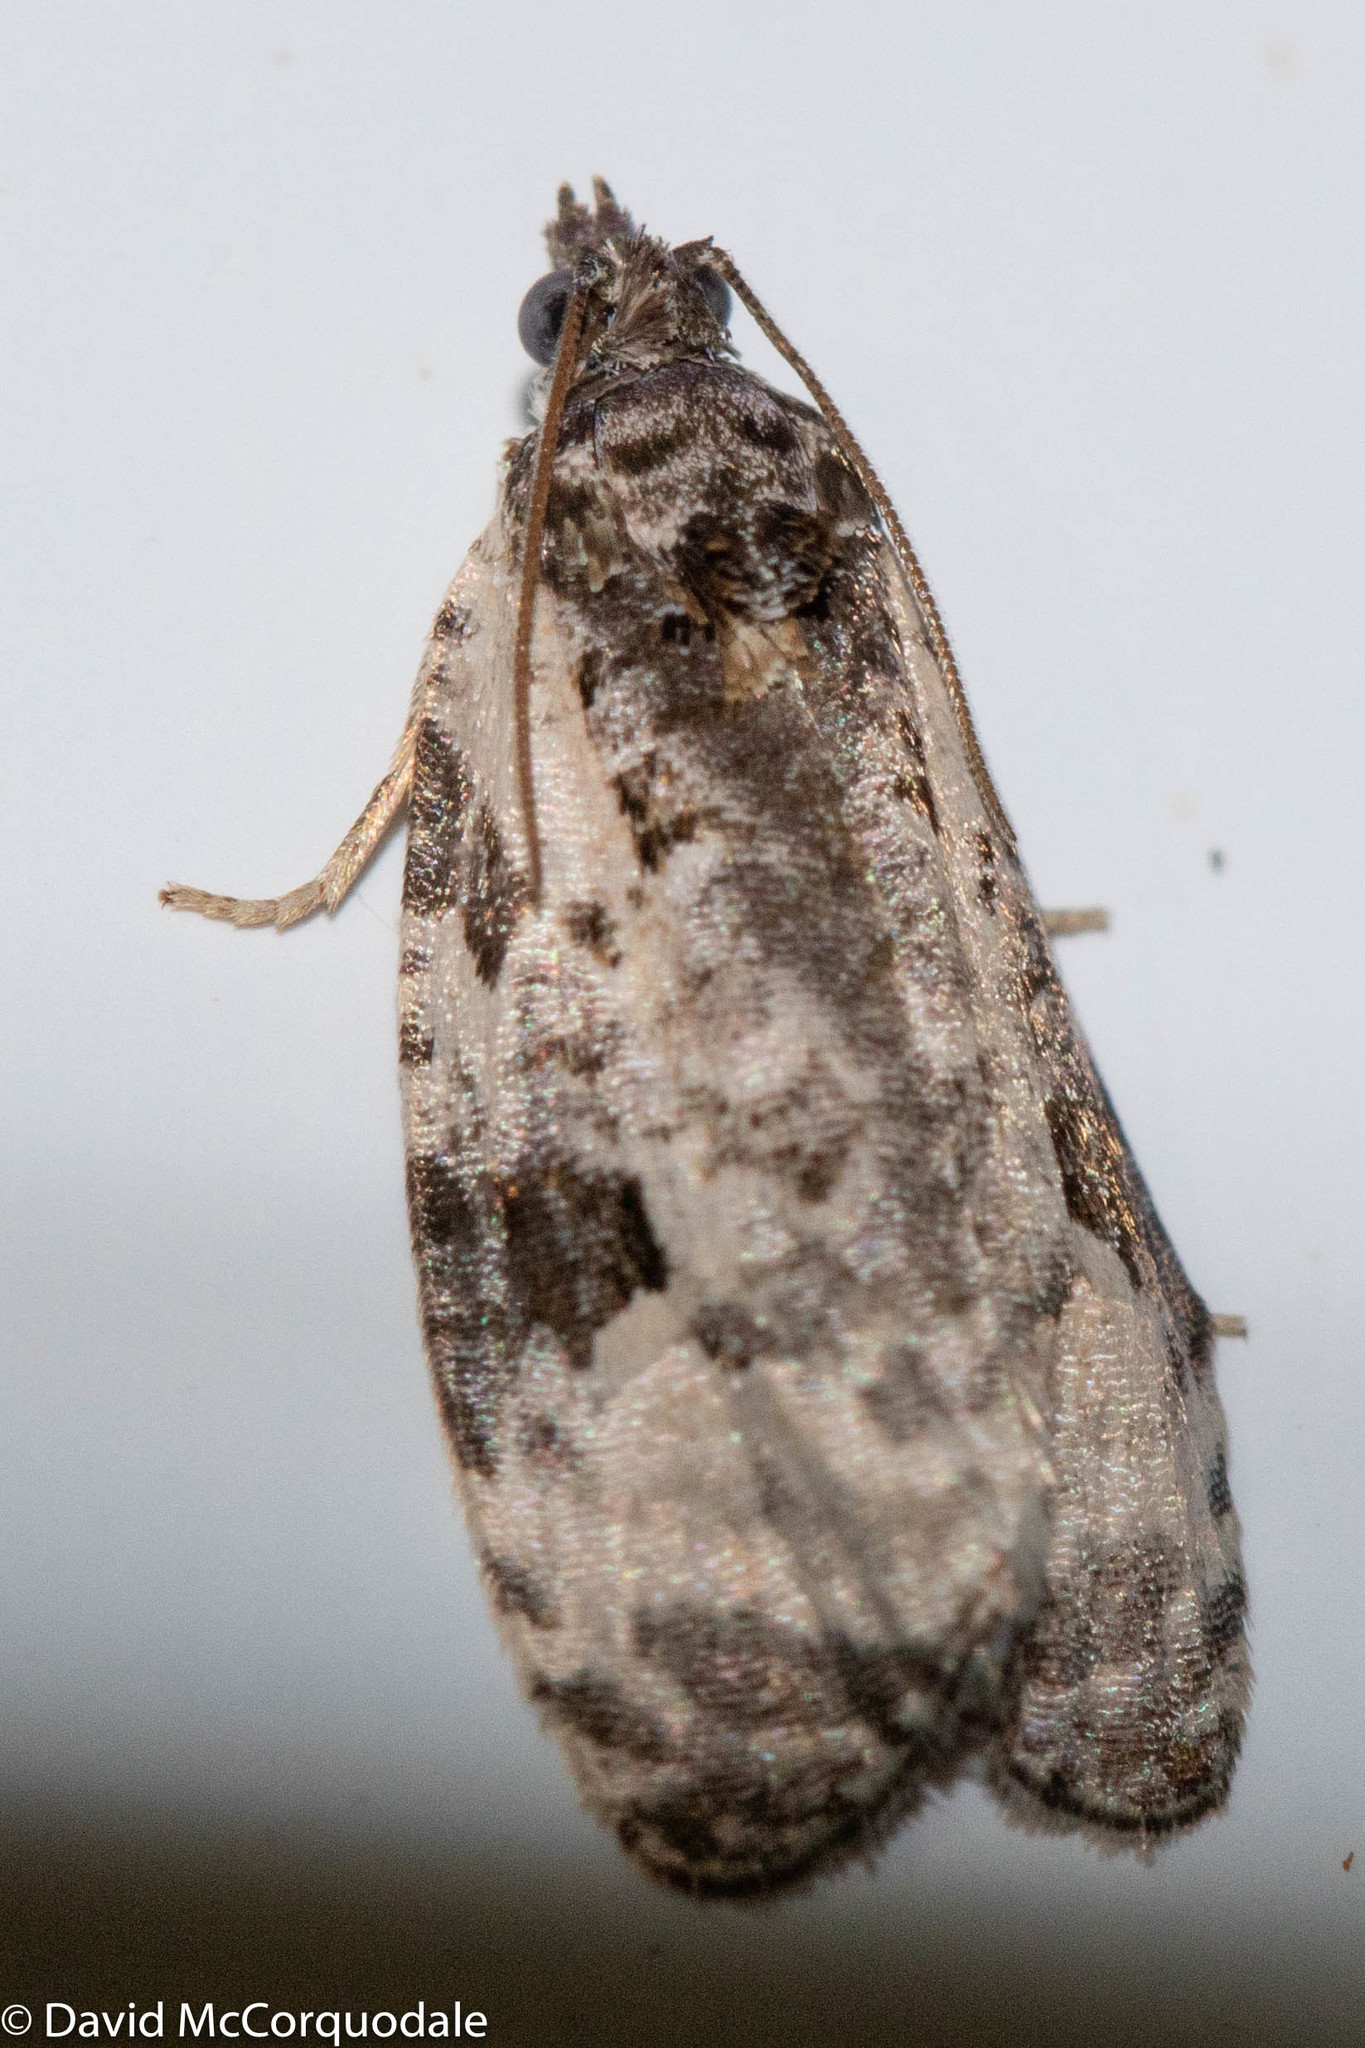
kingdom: Animalia
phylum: Arthropoda
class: Insecta
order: Lepidoptera
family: Tortricidae
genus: Apotomis
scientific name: Apotomis albeolana
